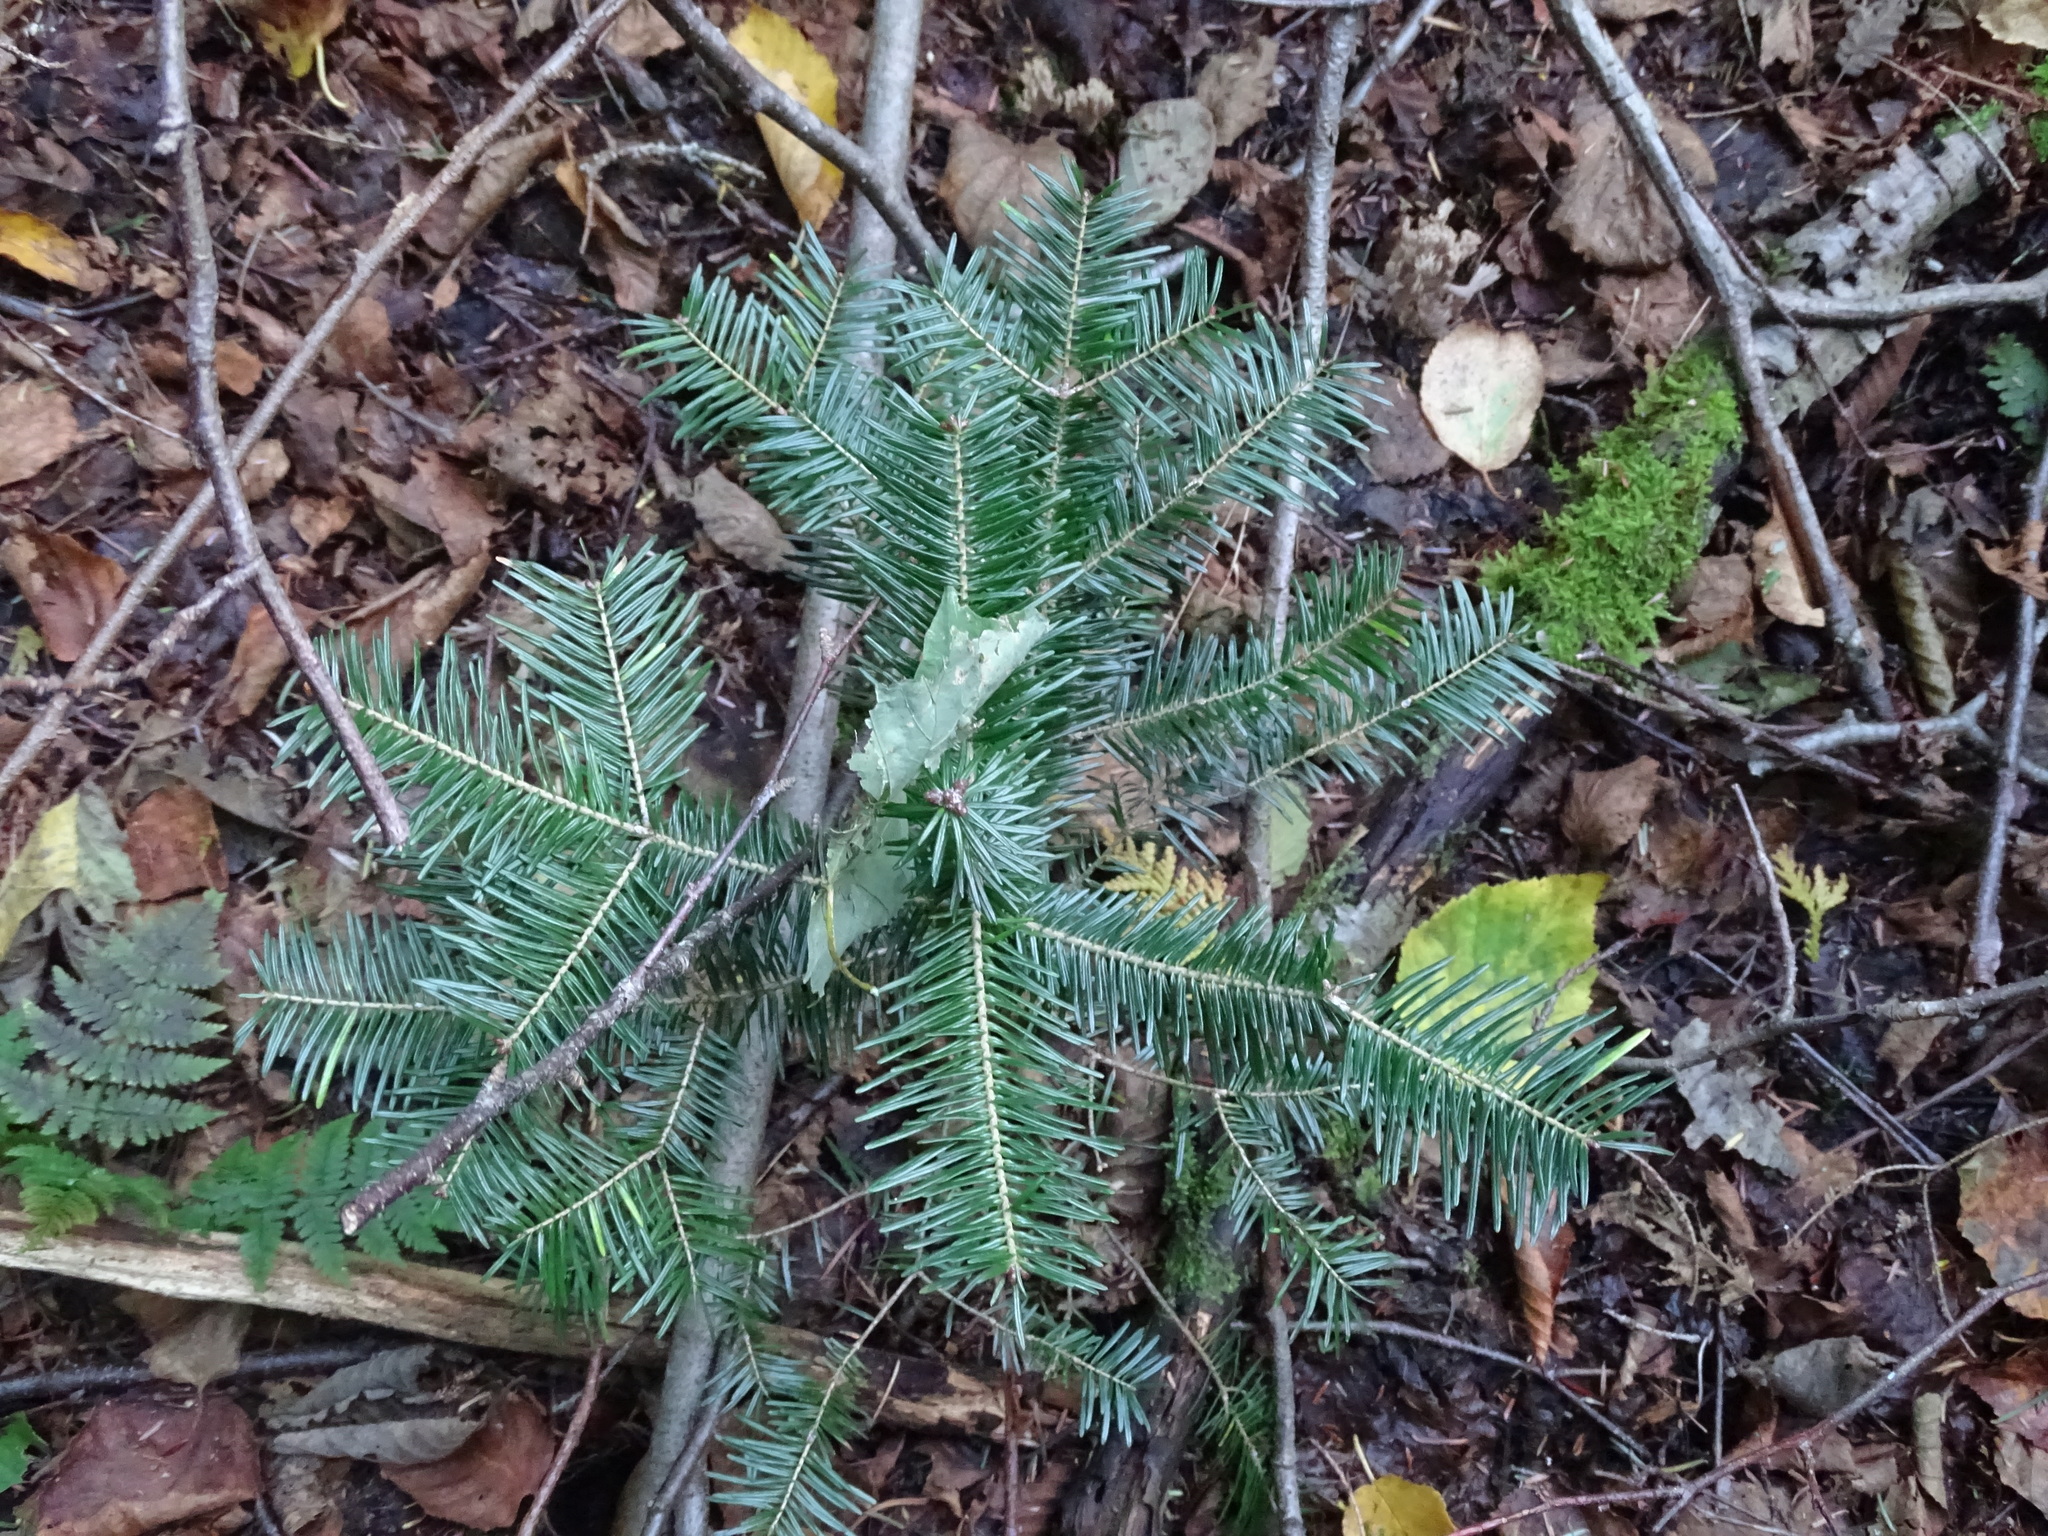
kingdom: Plantae
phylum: Tracheophyta
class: Pinopsida
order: Pinales
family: Pinaceae
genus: Abies
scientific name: Abies balsamea
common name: Balsam fir
